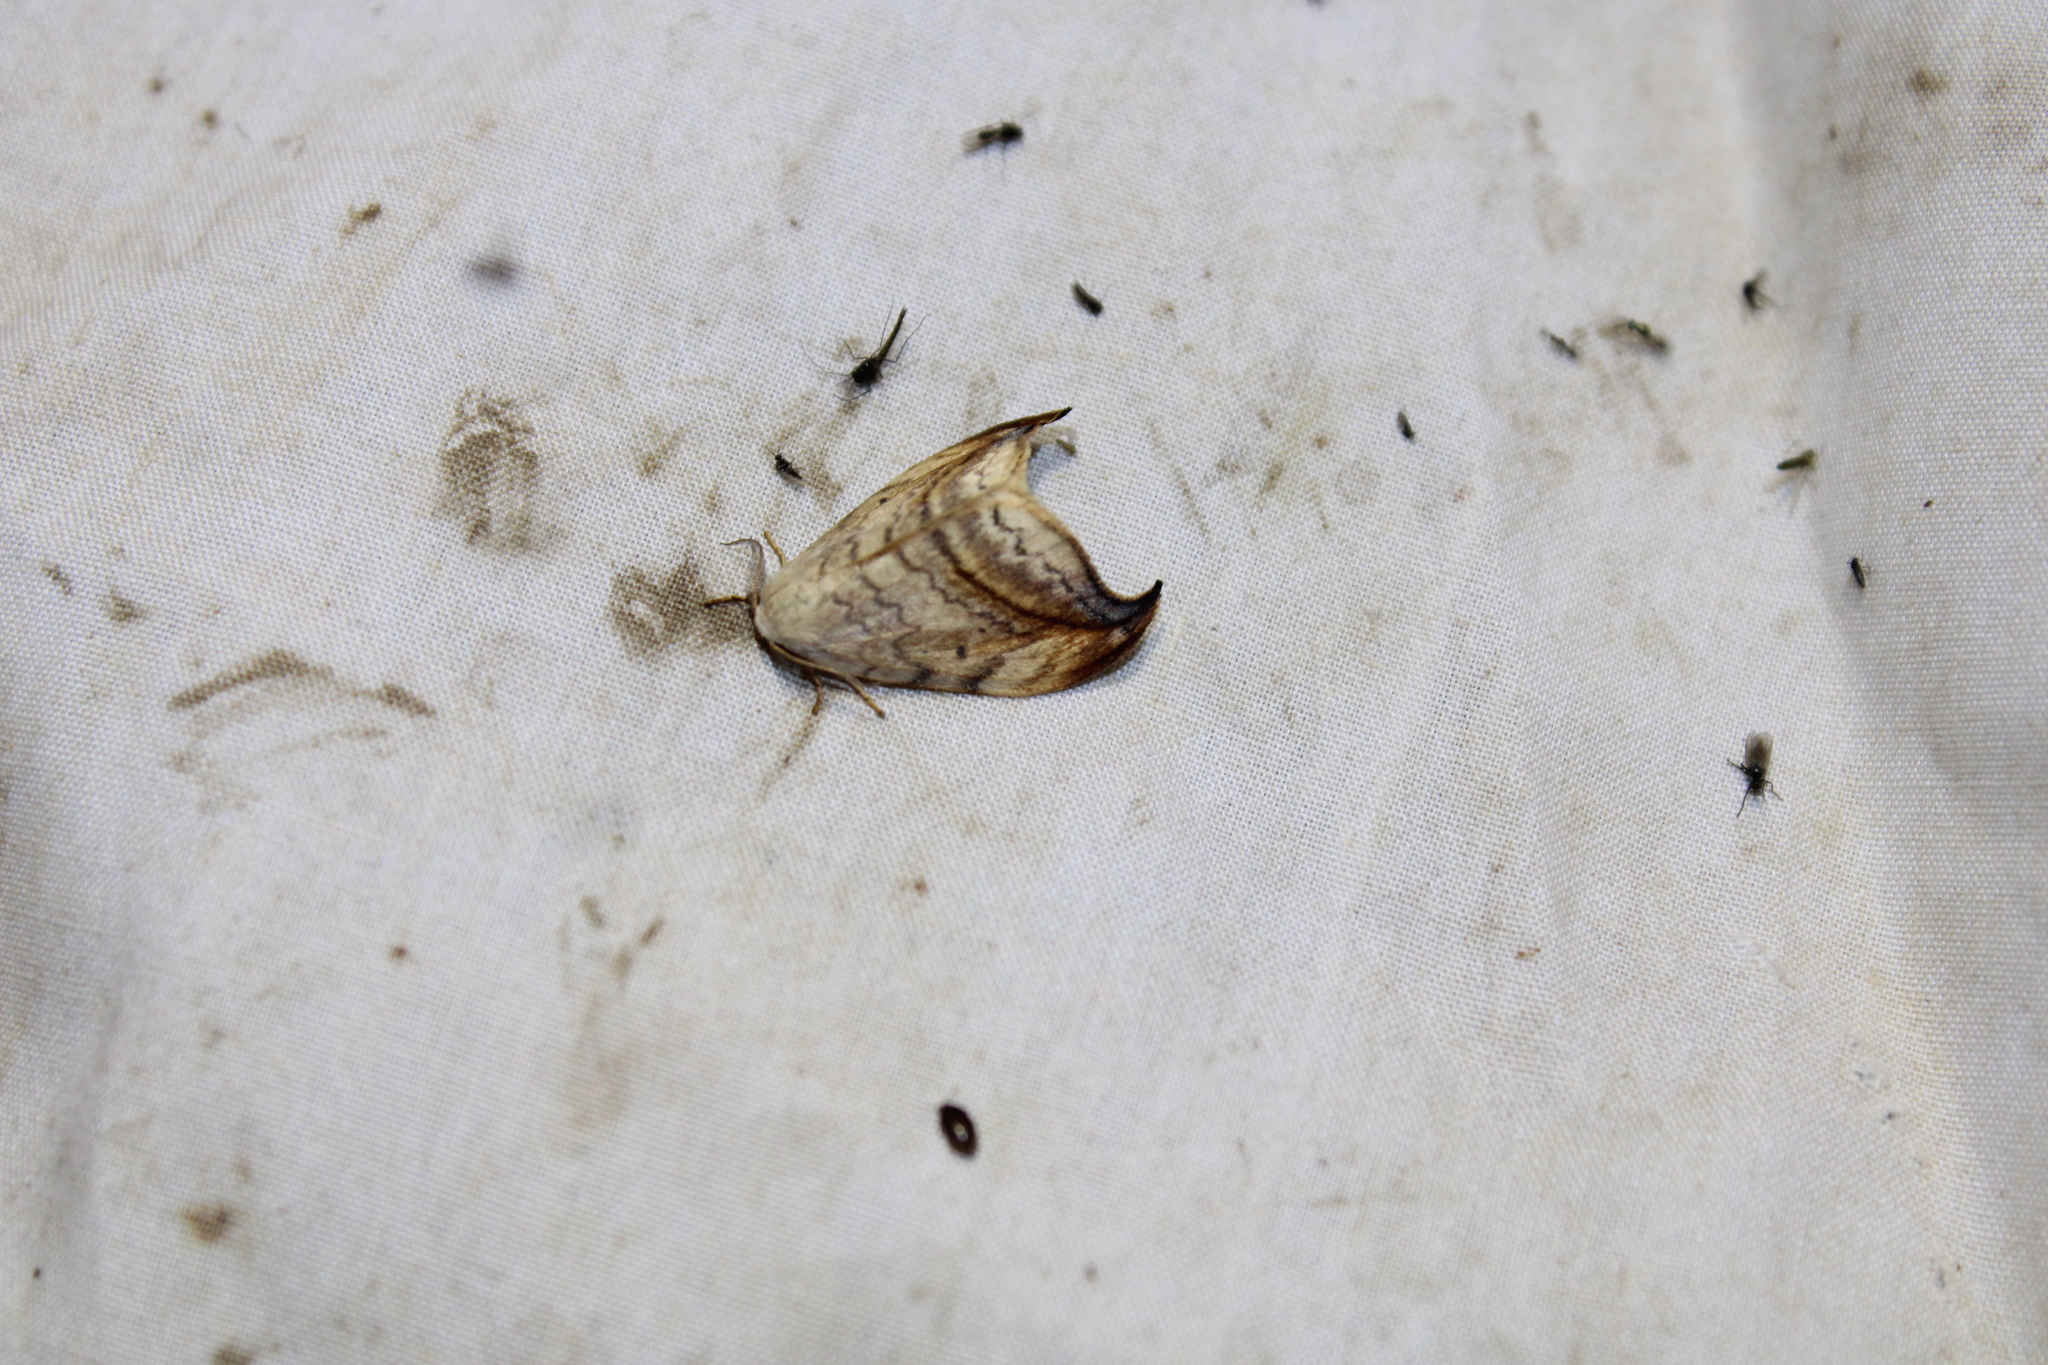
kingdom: Animalia
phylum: Arthropoda
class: Insecta
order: Lepidoptera
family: Drepanidae
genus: Drepana
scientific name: Drepana arcuata
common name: Arched hooktip moth
